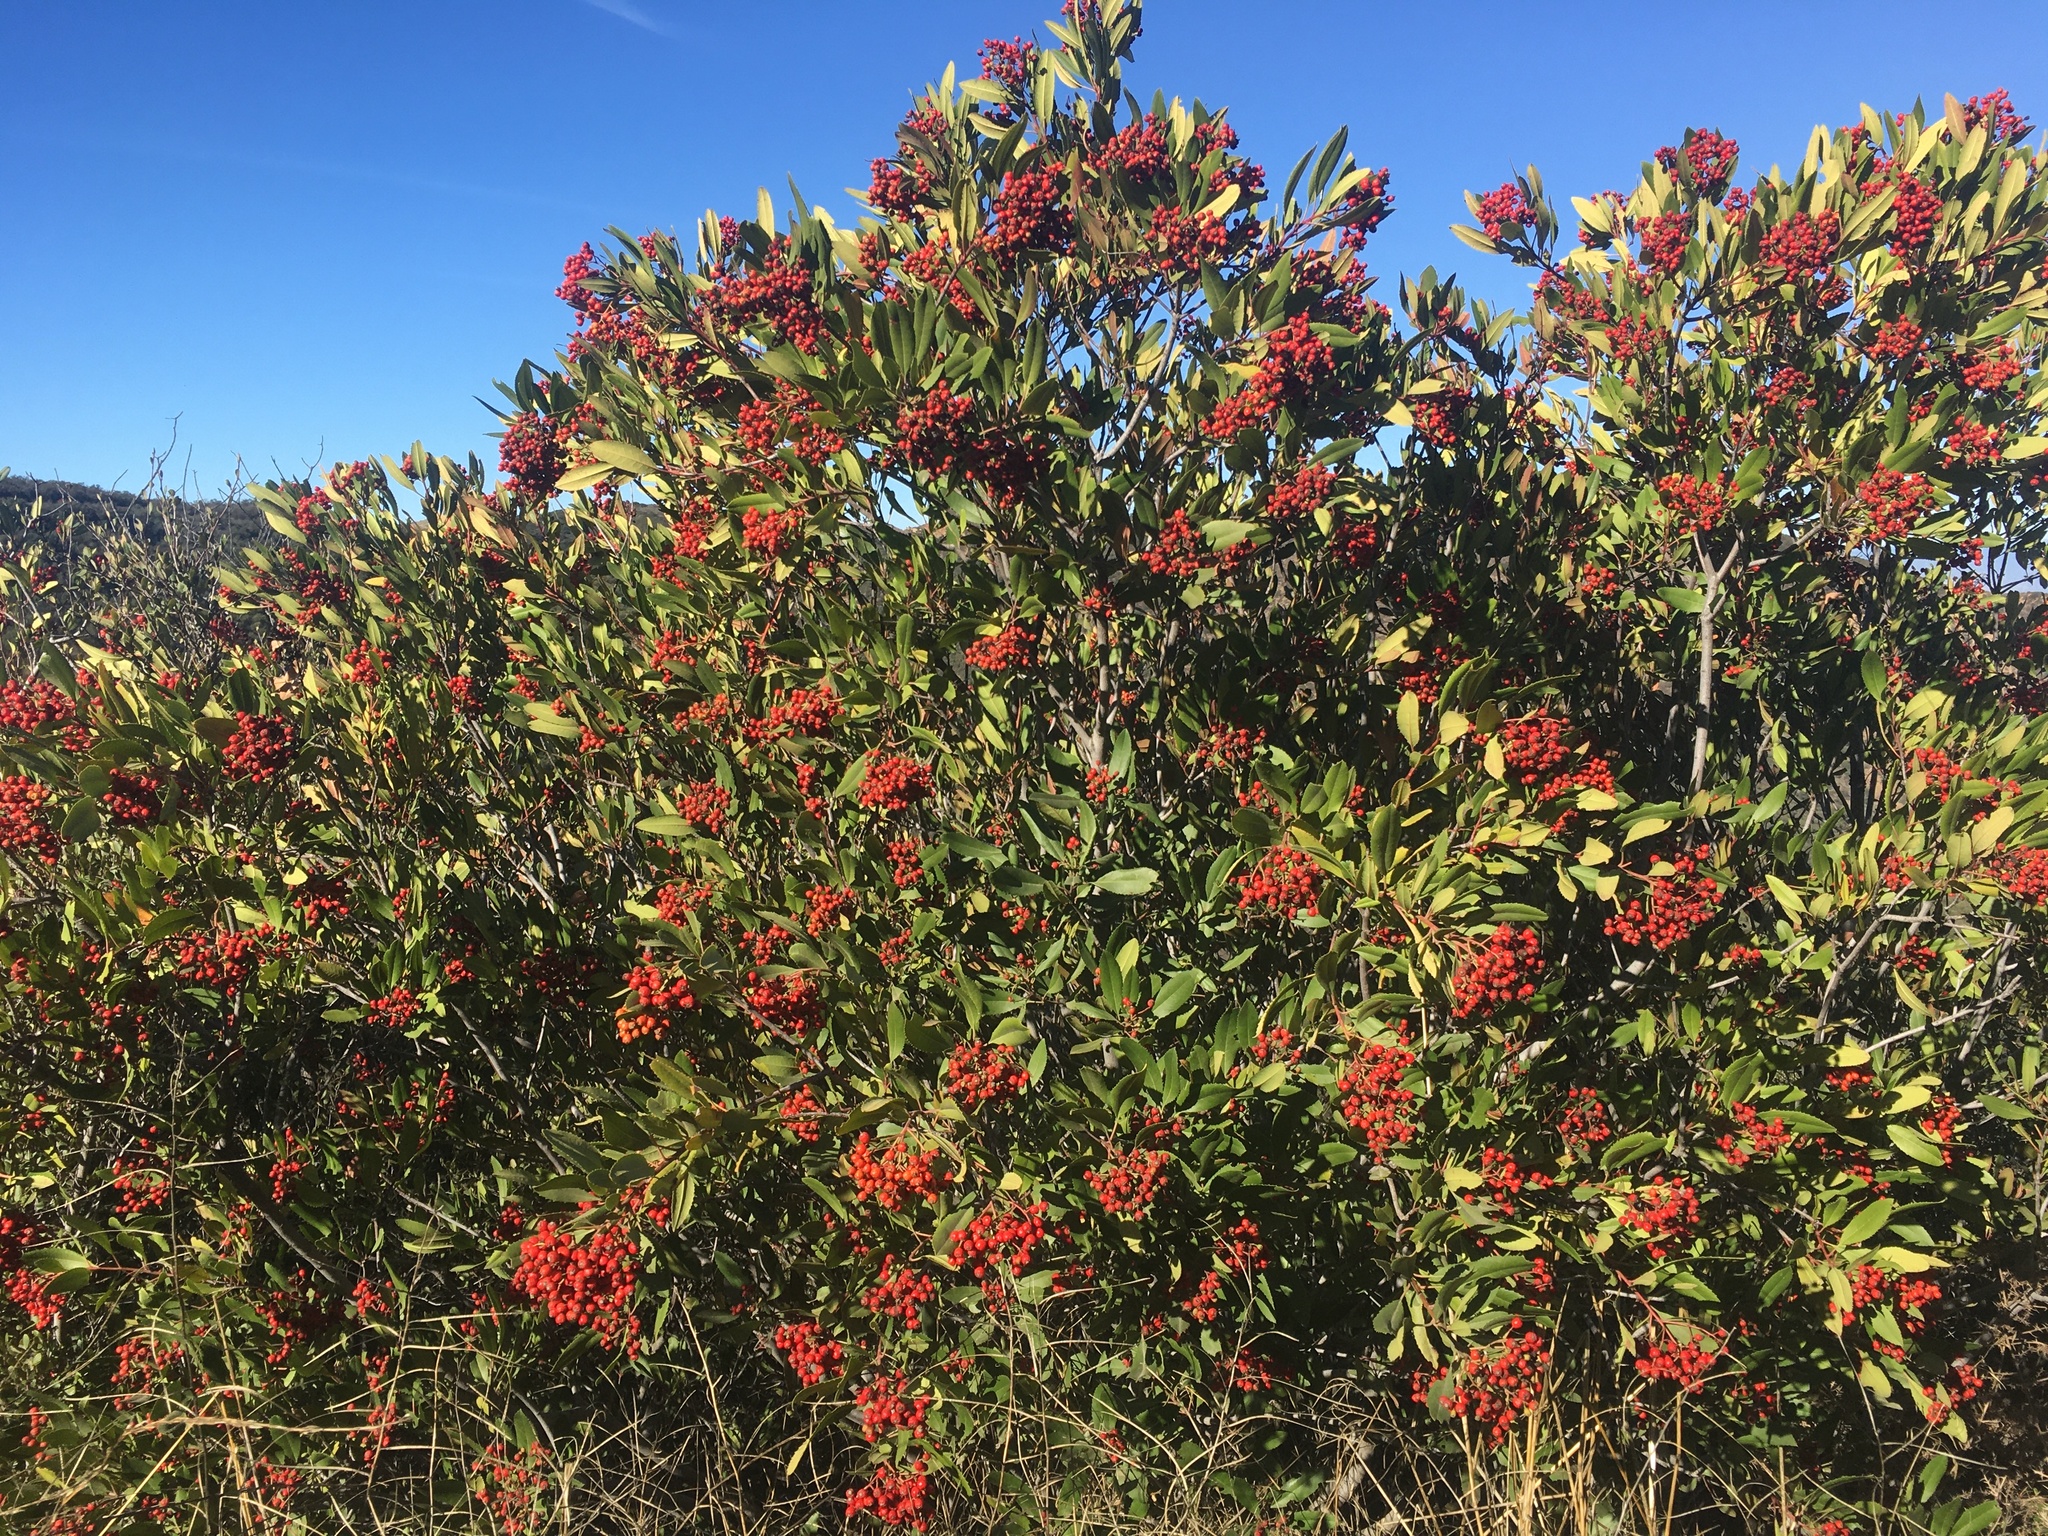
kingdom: Plantae
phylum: Tracheophyta
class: Magnoliopsida
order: Rosales
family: Rosaceae
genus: Heteromeles
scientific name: Heteromeles arbutifolia
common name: California-holly
